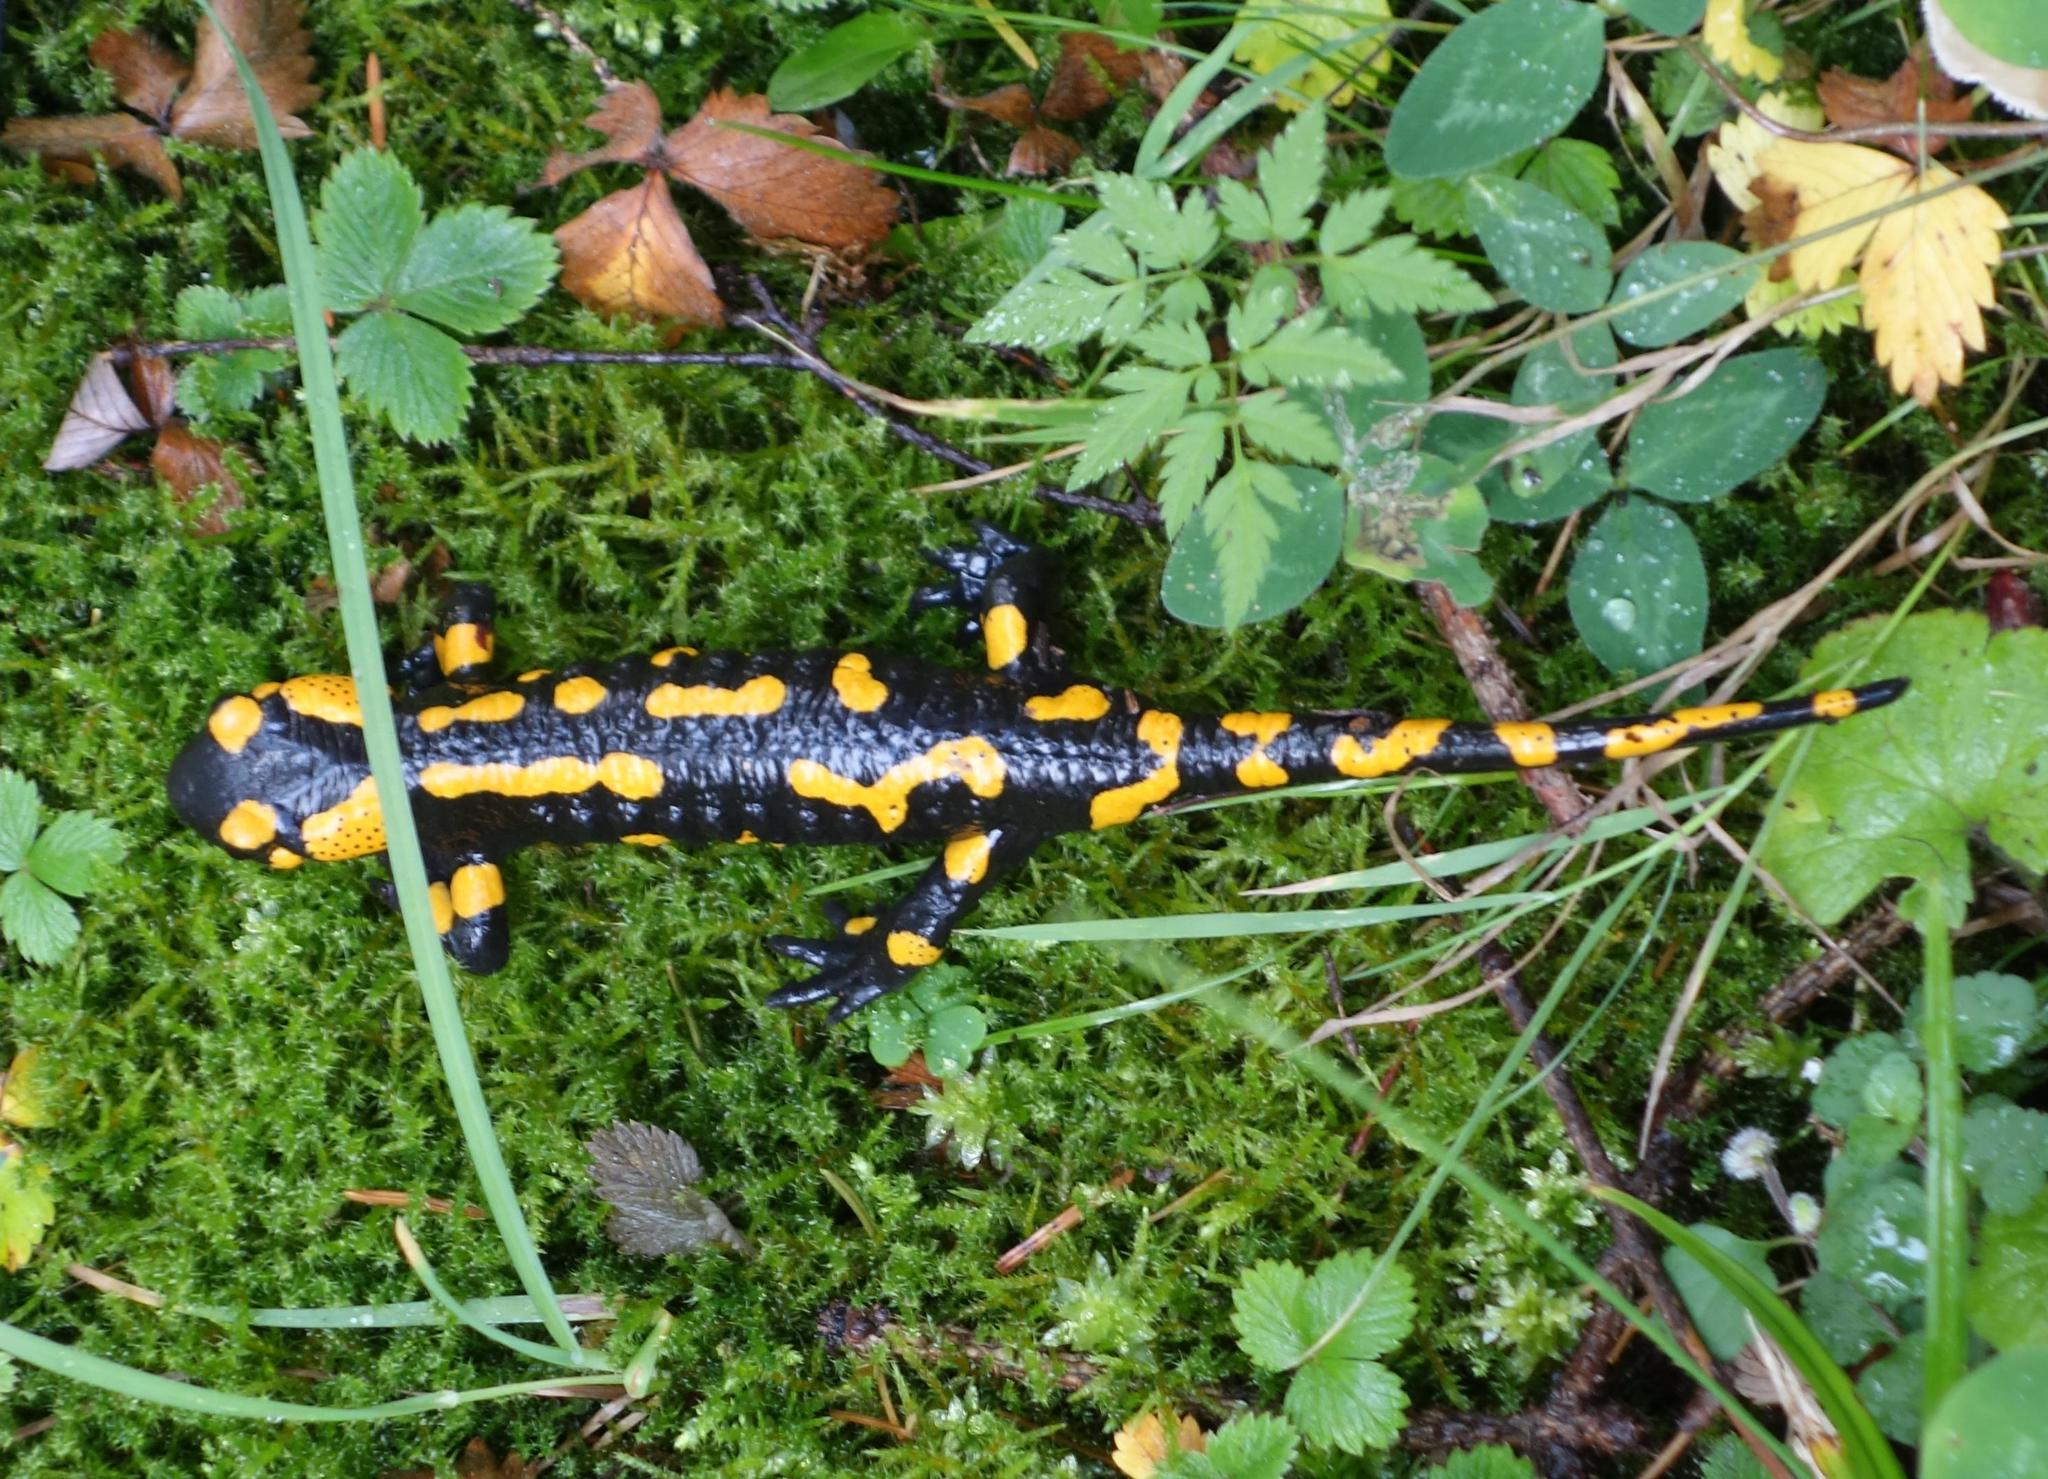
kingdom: Animalia
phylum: Chordata
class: Amphibia
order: Caudata
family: Salamandridae
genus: Salamandra
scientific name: Salamandra salamandra
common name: Fire salamander
